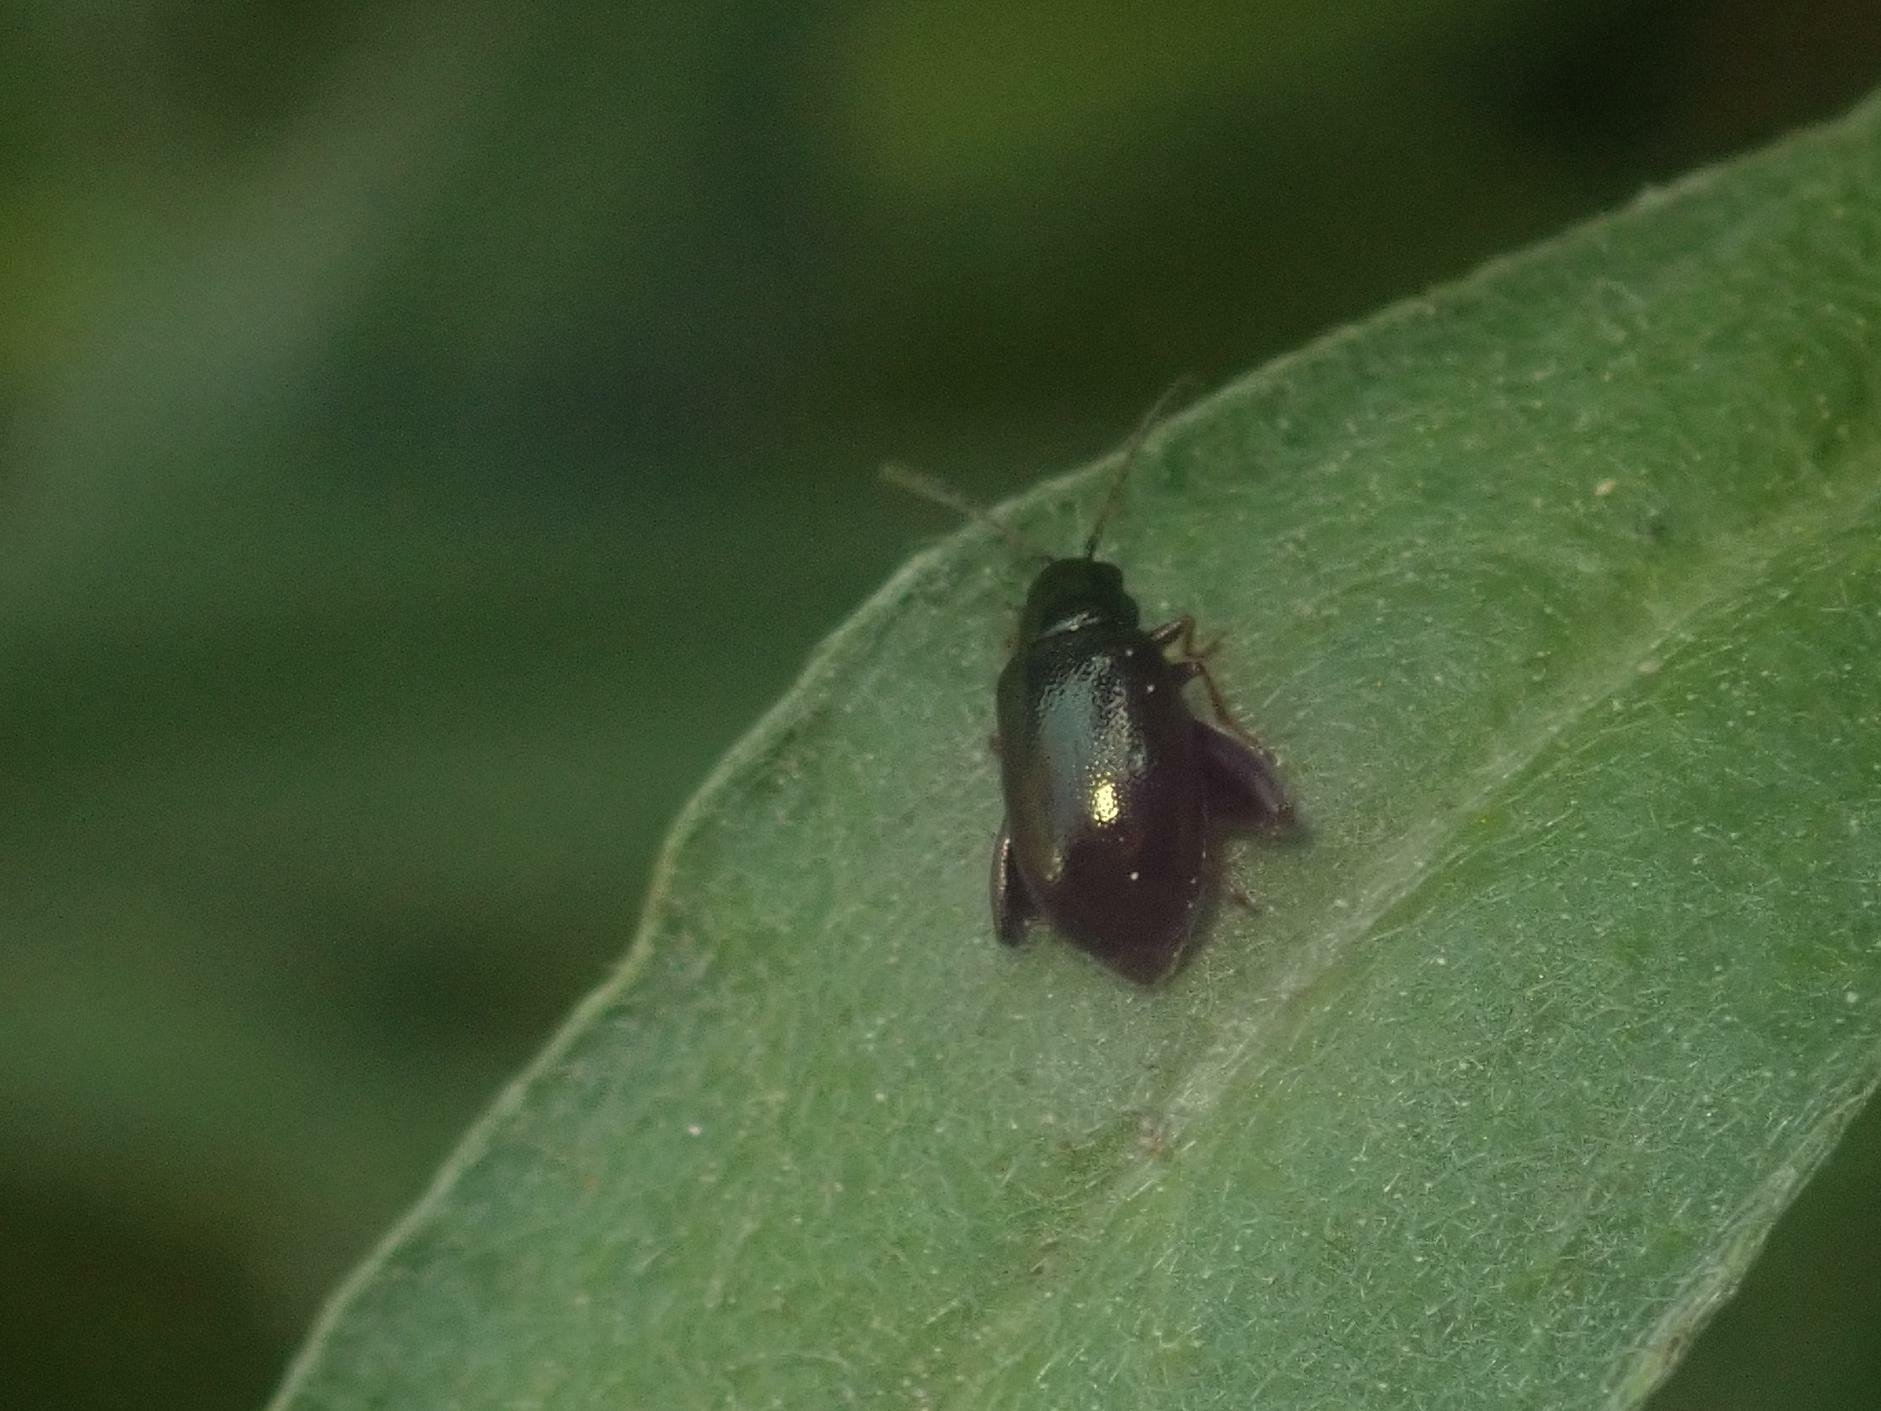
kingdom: Animalia
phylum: Arthropoda
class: Insecta
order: Coleoptera
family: Chrysomelidae
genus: Longitarsus
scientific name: Longitarsus echii
